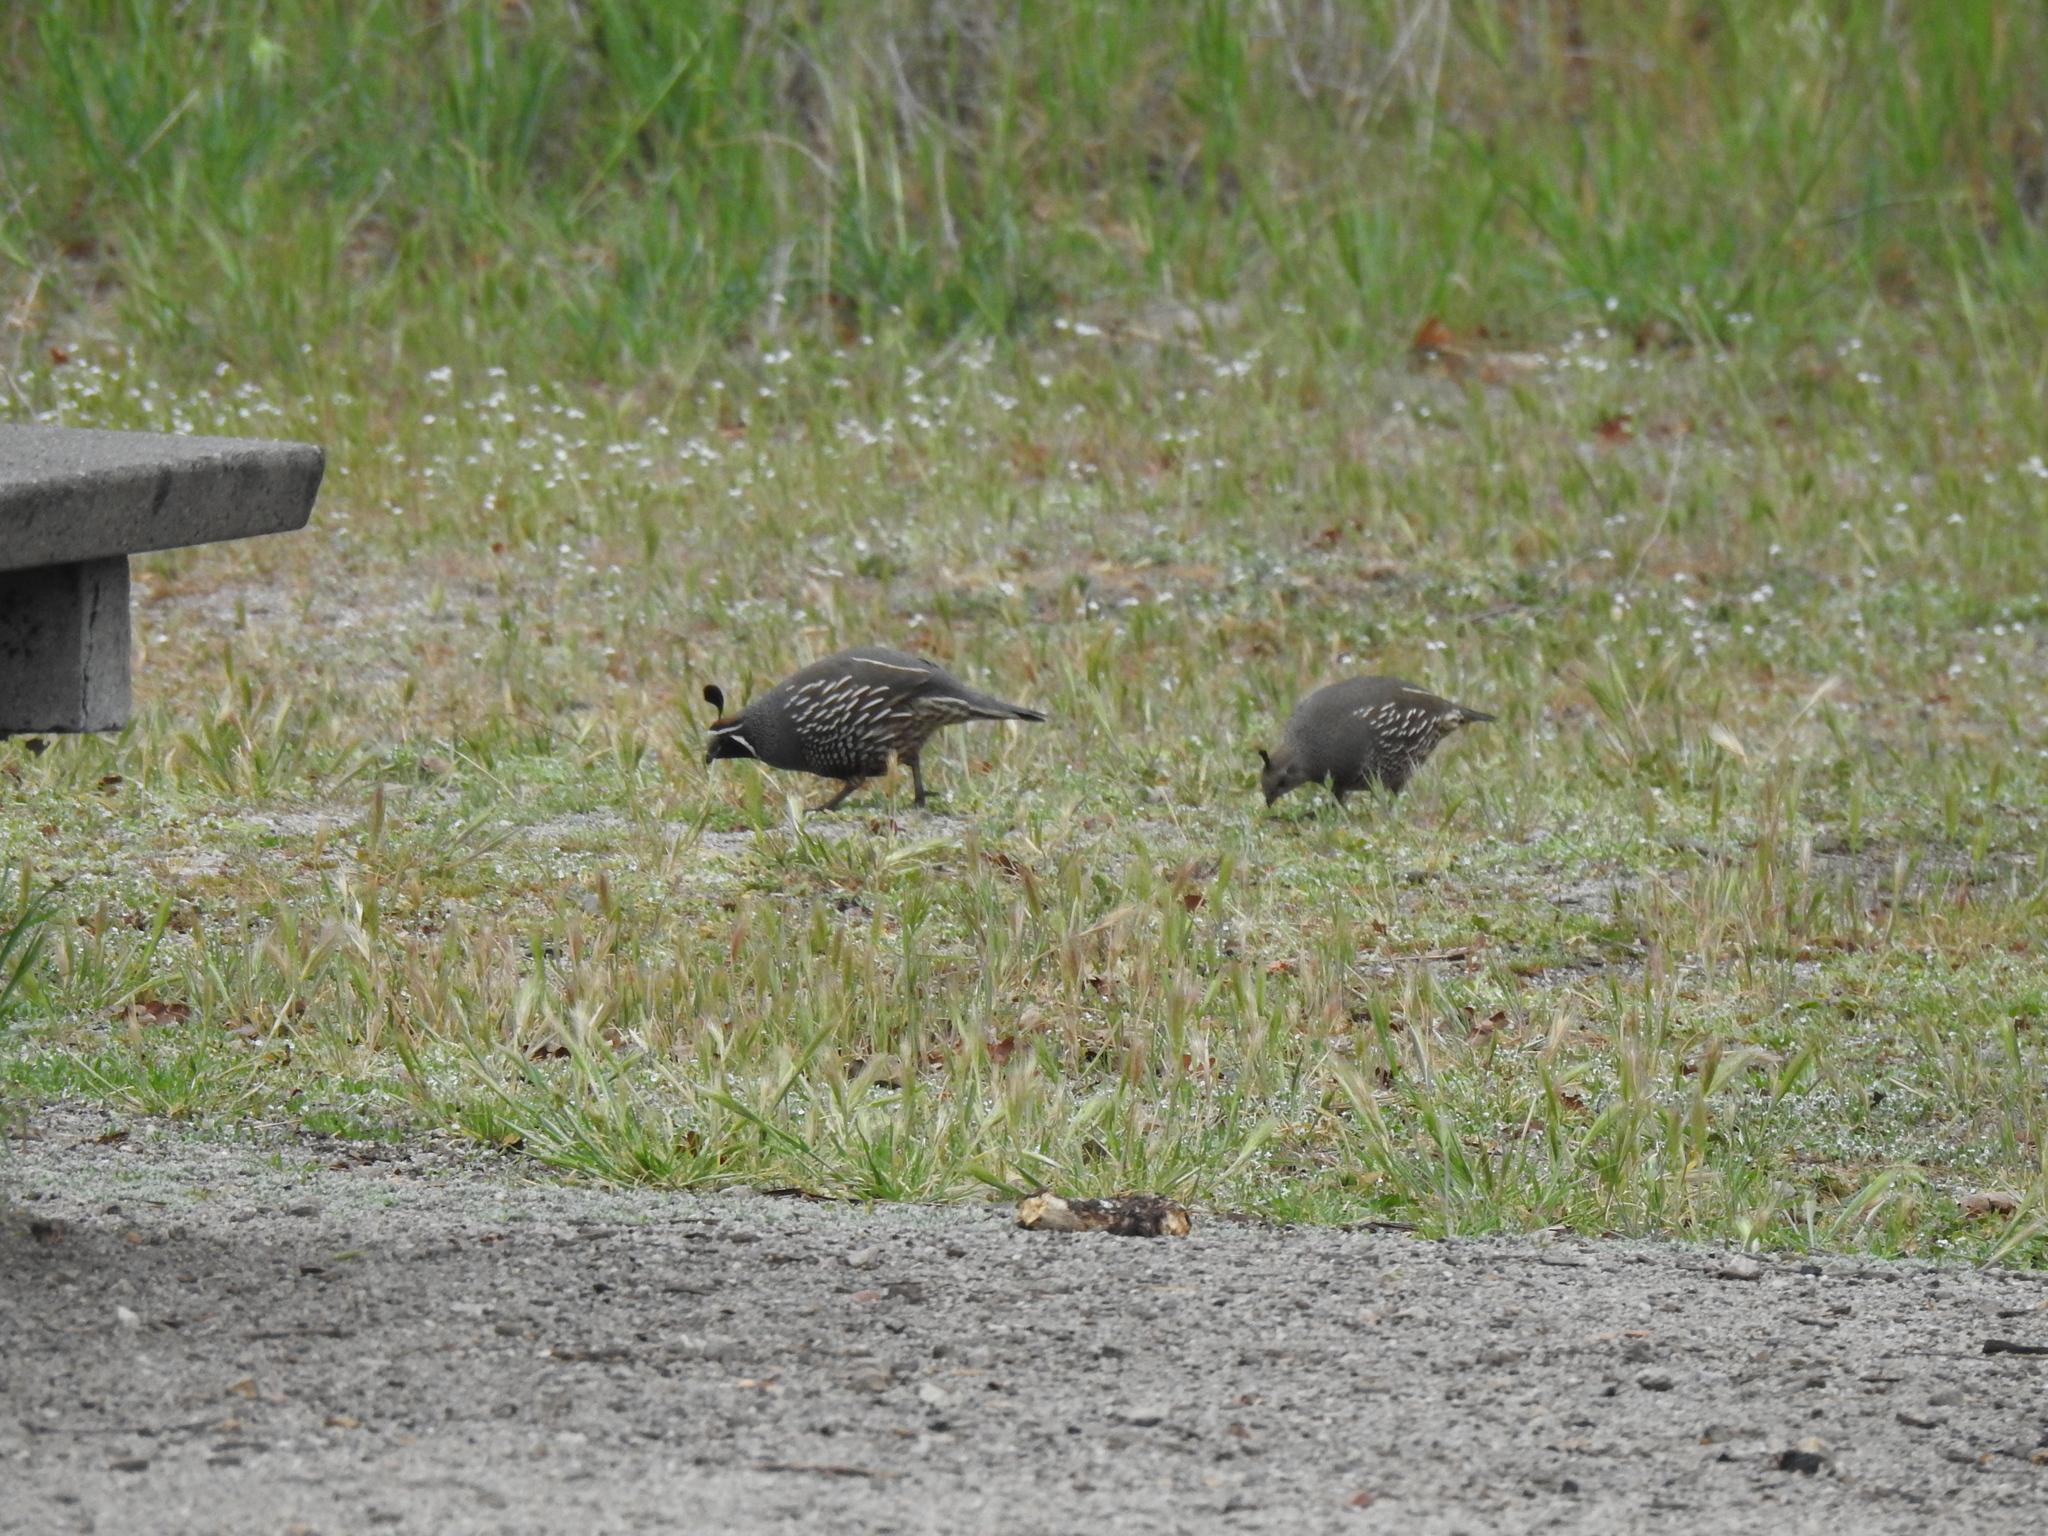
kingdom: Animalia
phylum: Chordata
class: Aves
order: Galliformes
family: Odontophoridae
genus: Callipepla
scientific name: Callipepla californica
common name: California quail
